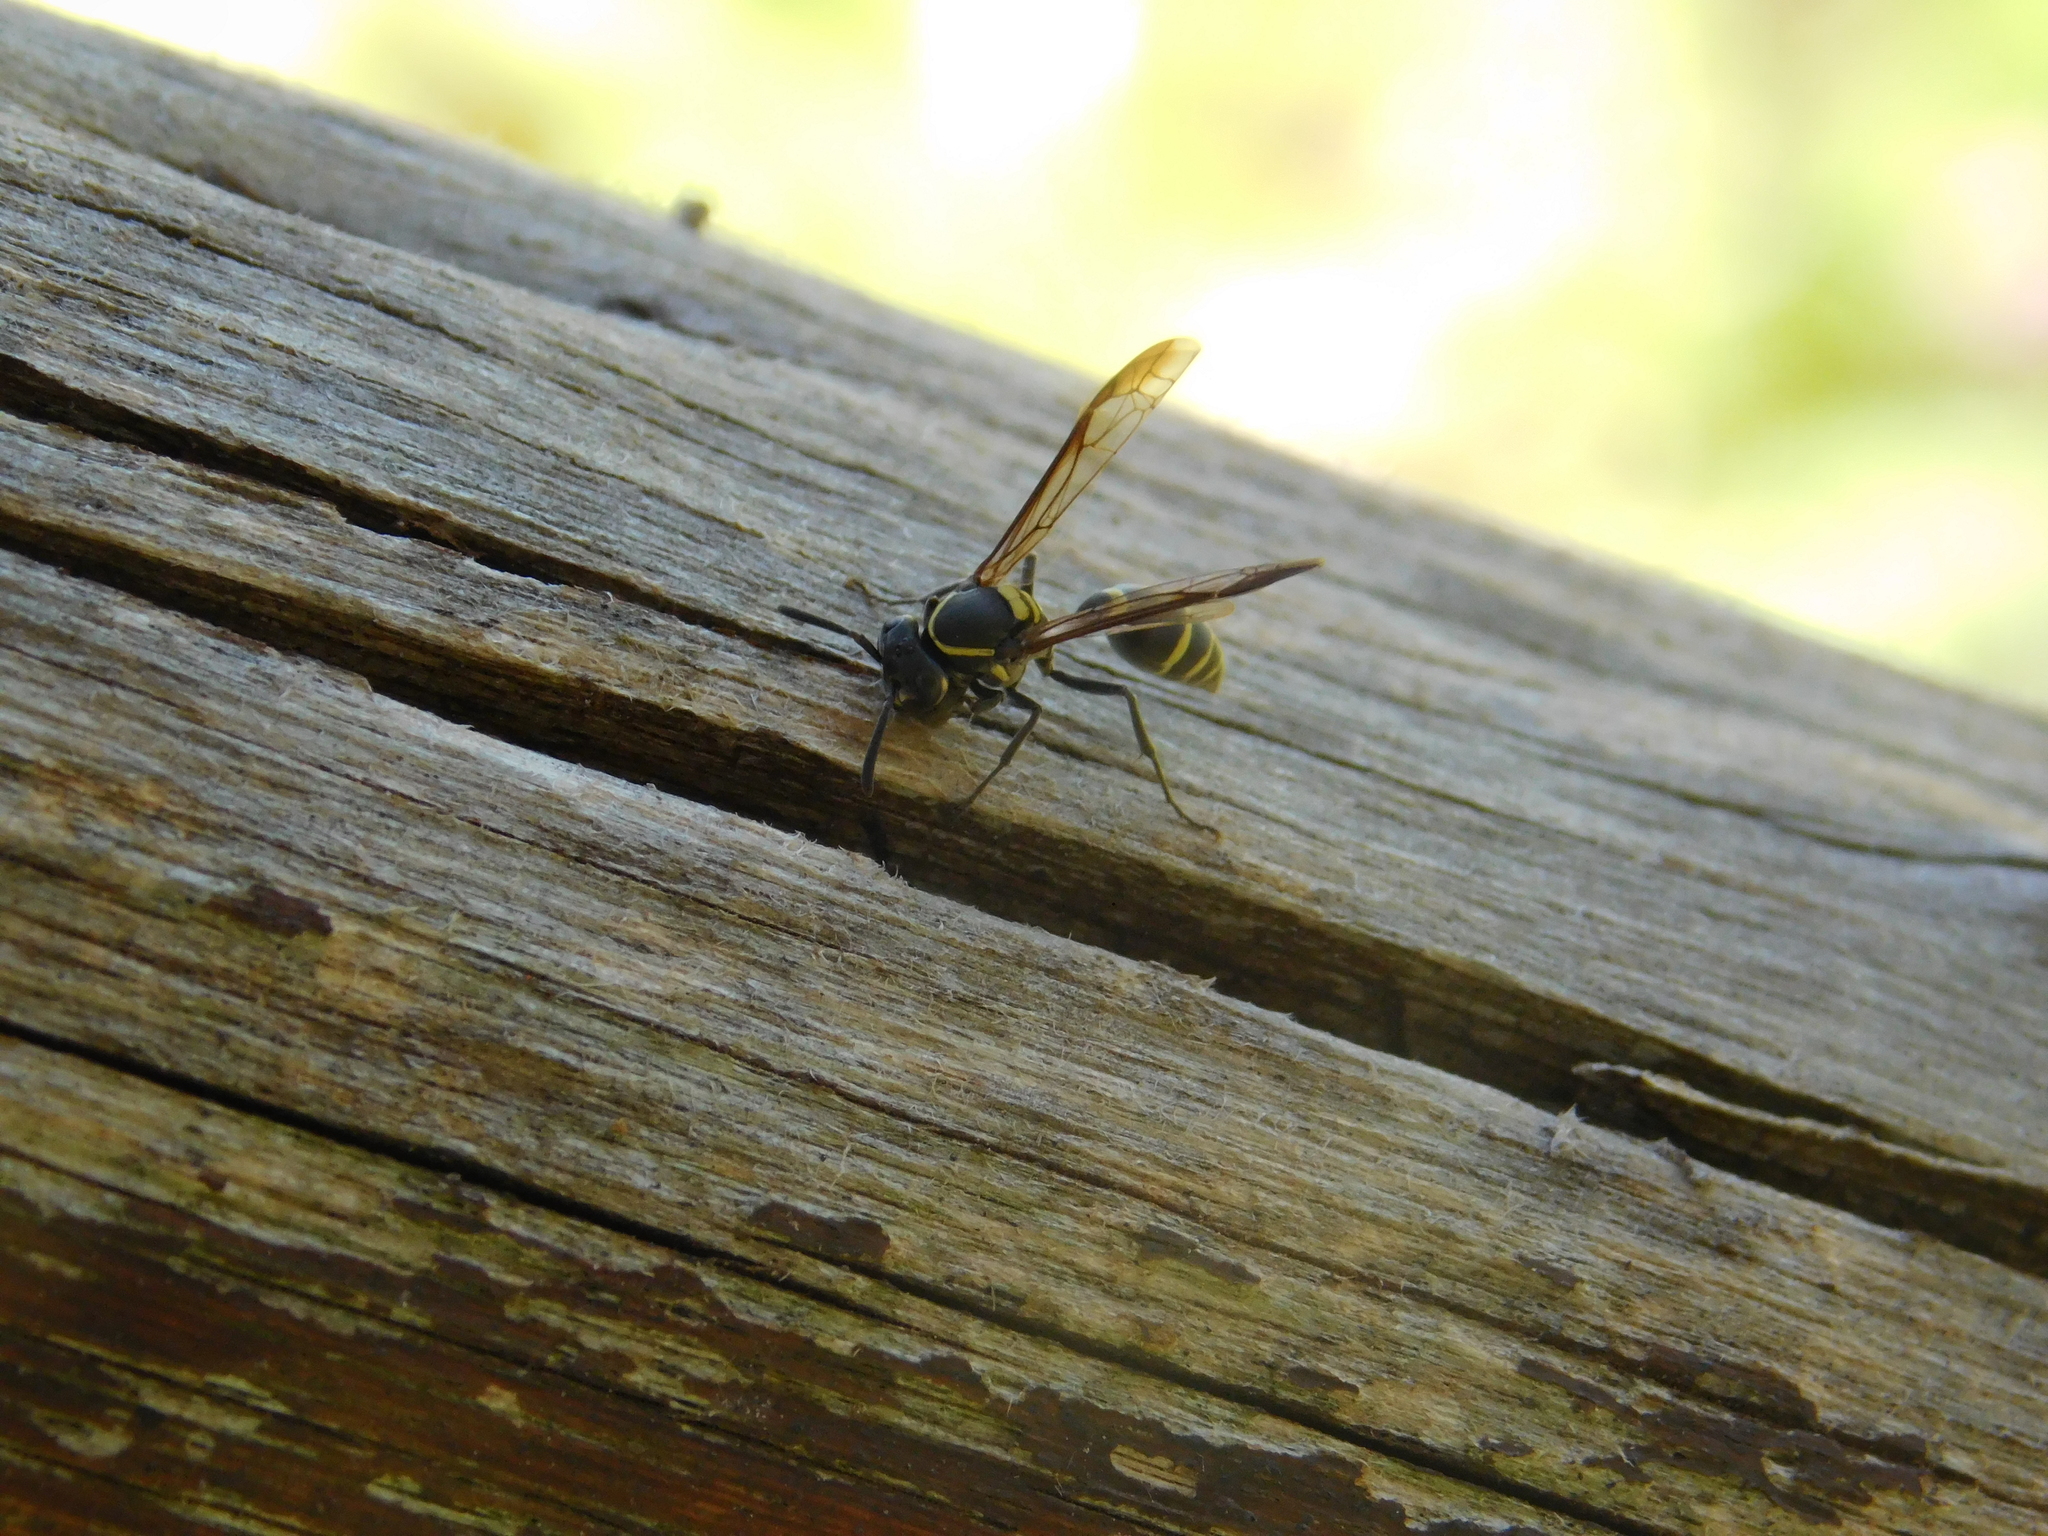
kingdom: Animalia
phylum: Arthropoda
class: Insecta
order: Hymenoptera
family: Eumenidae
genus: Polybia
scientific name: Polybia occidentalis
